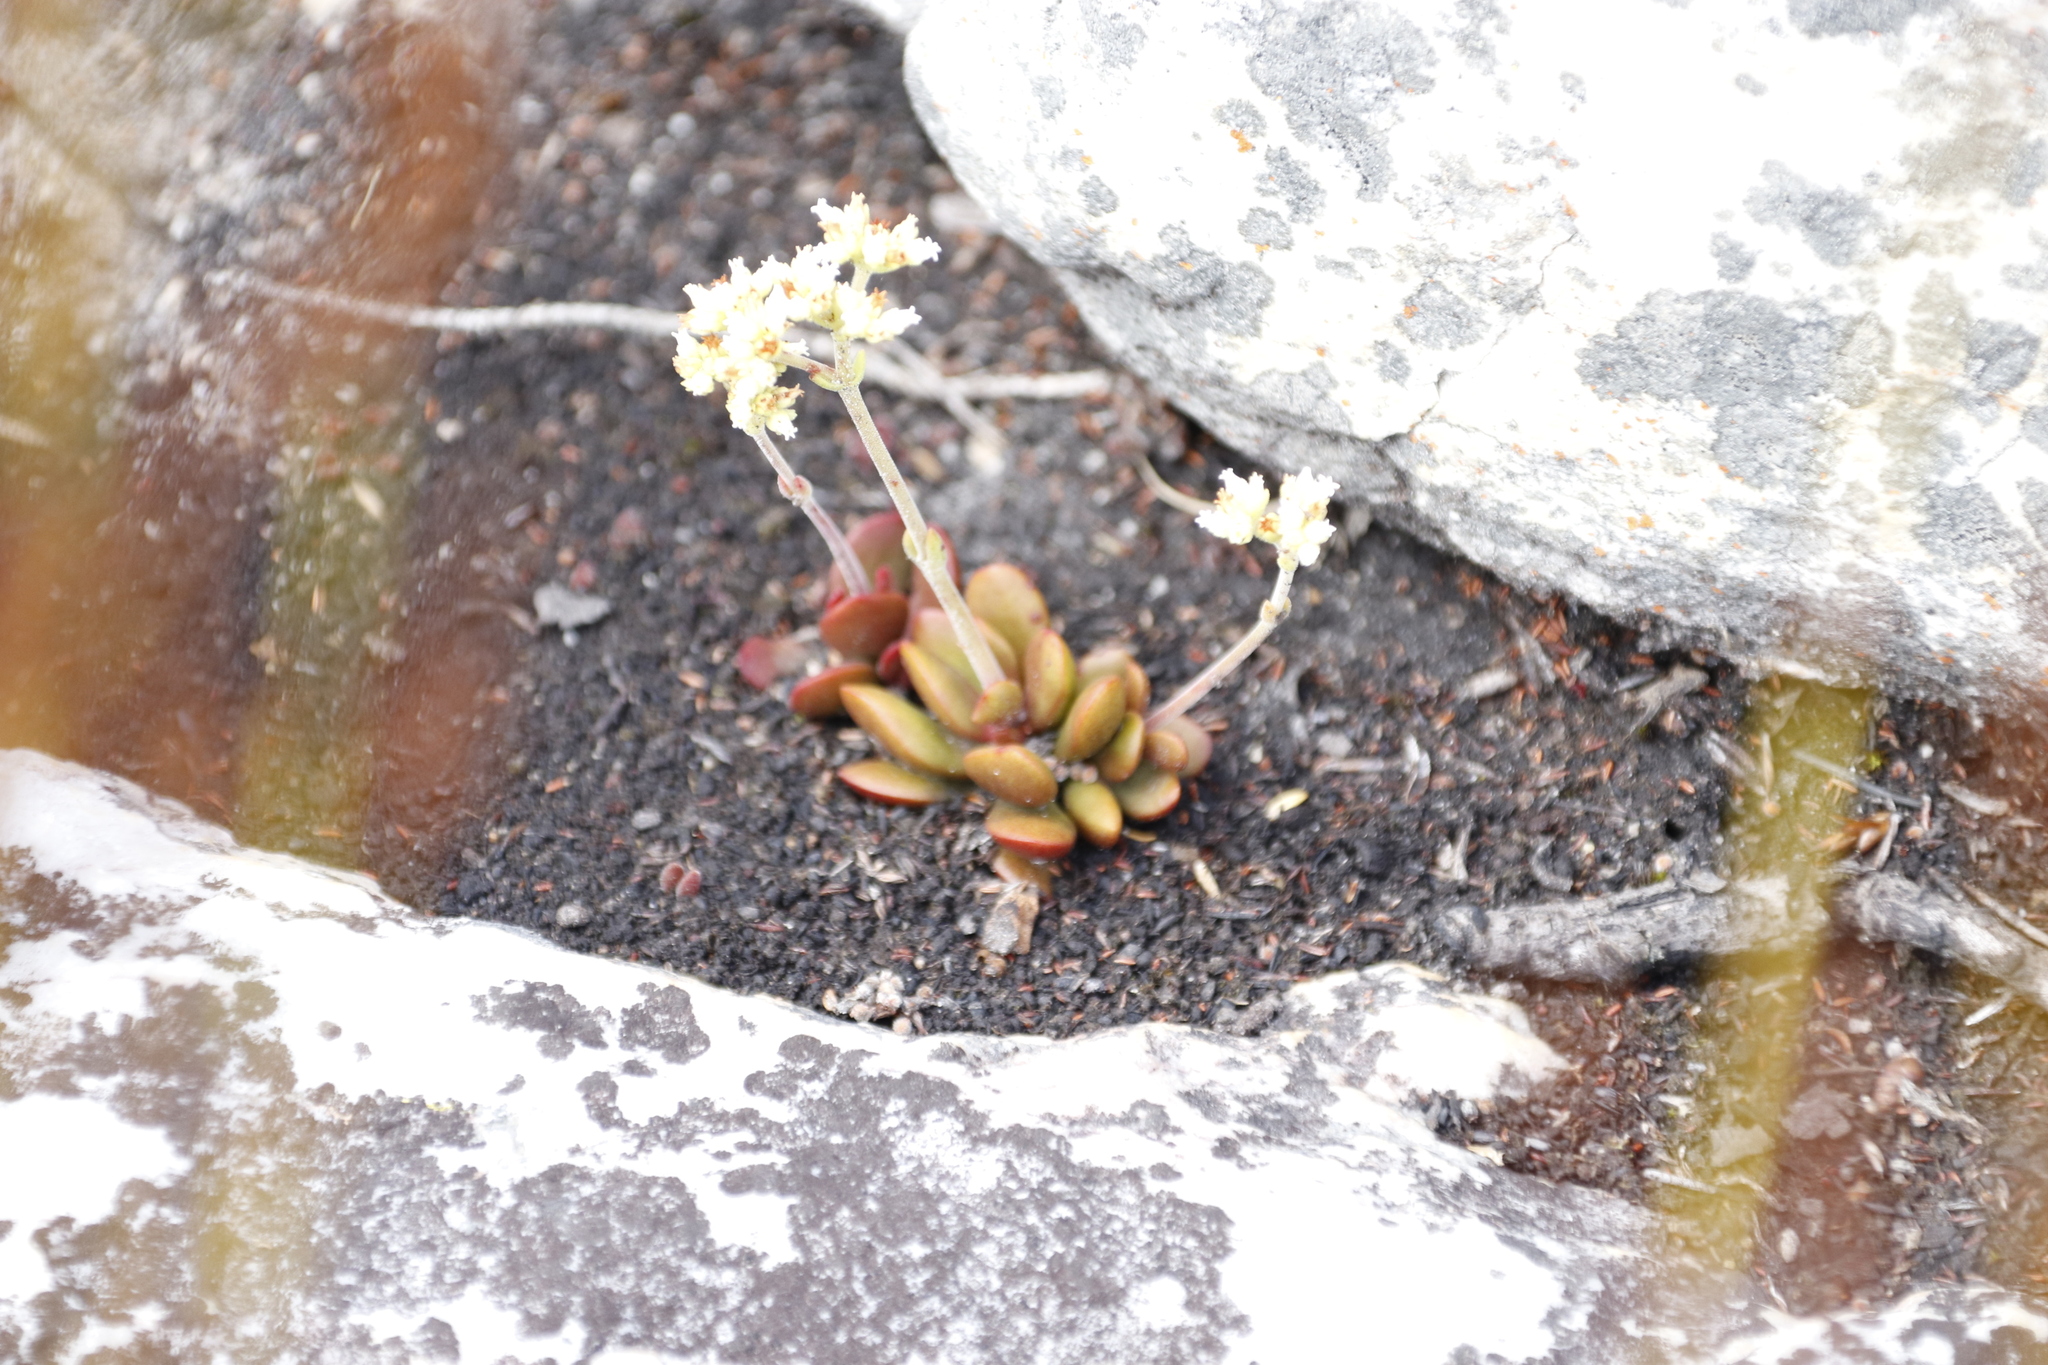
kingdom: Plantae
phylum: Tracheophyta
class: Magnoliopsida
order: Saxifragales
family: Crassulaceae
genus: Crassula
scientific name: Crassula pubescens
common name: Jersey pigmyweed
